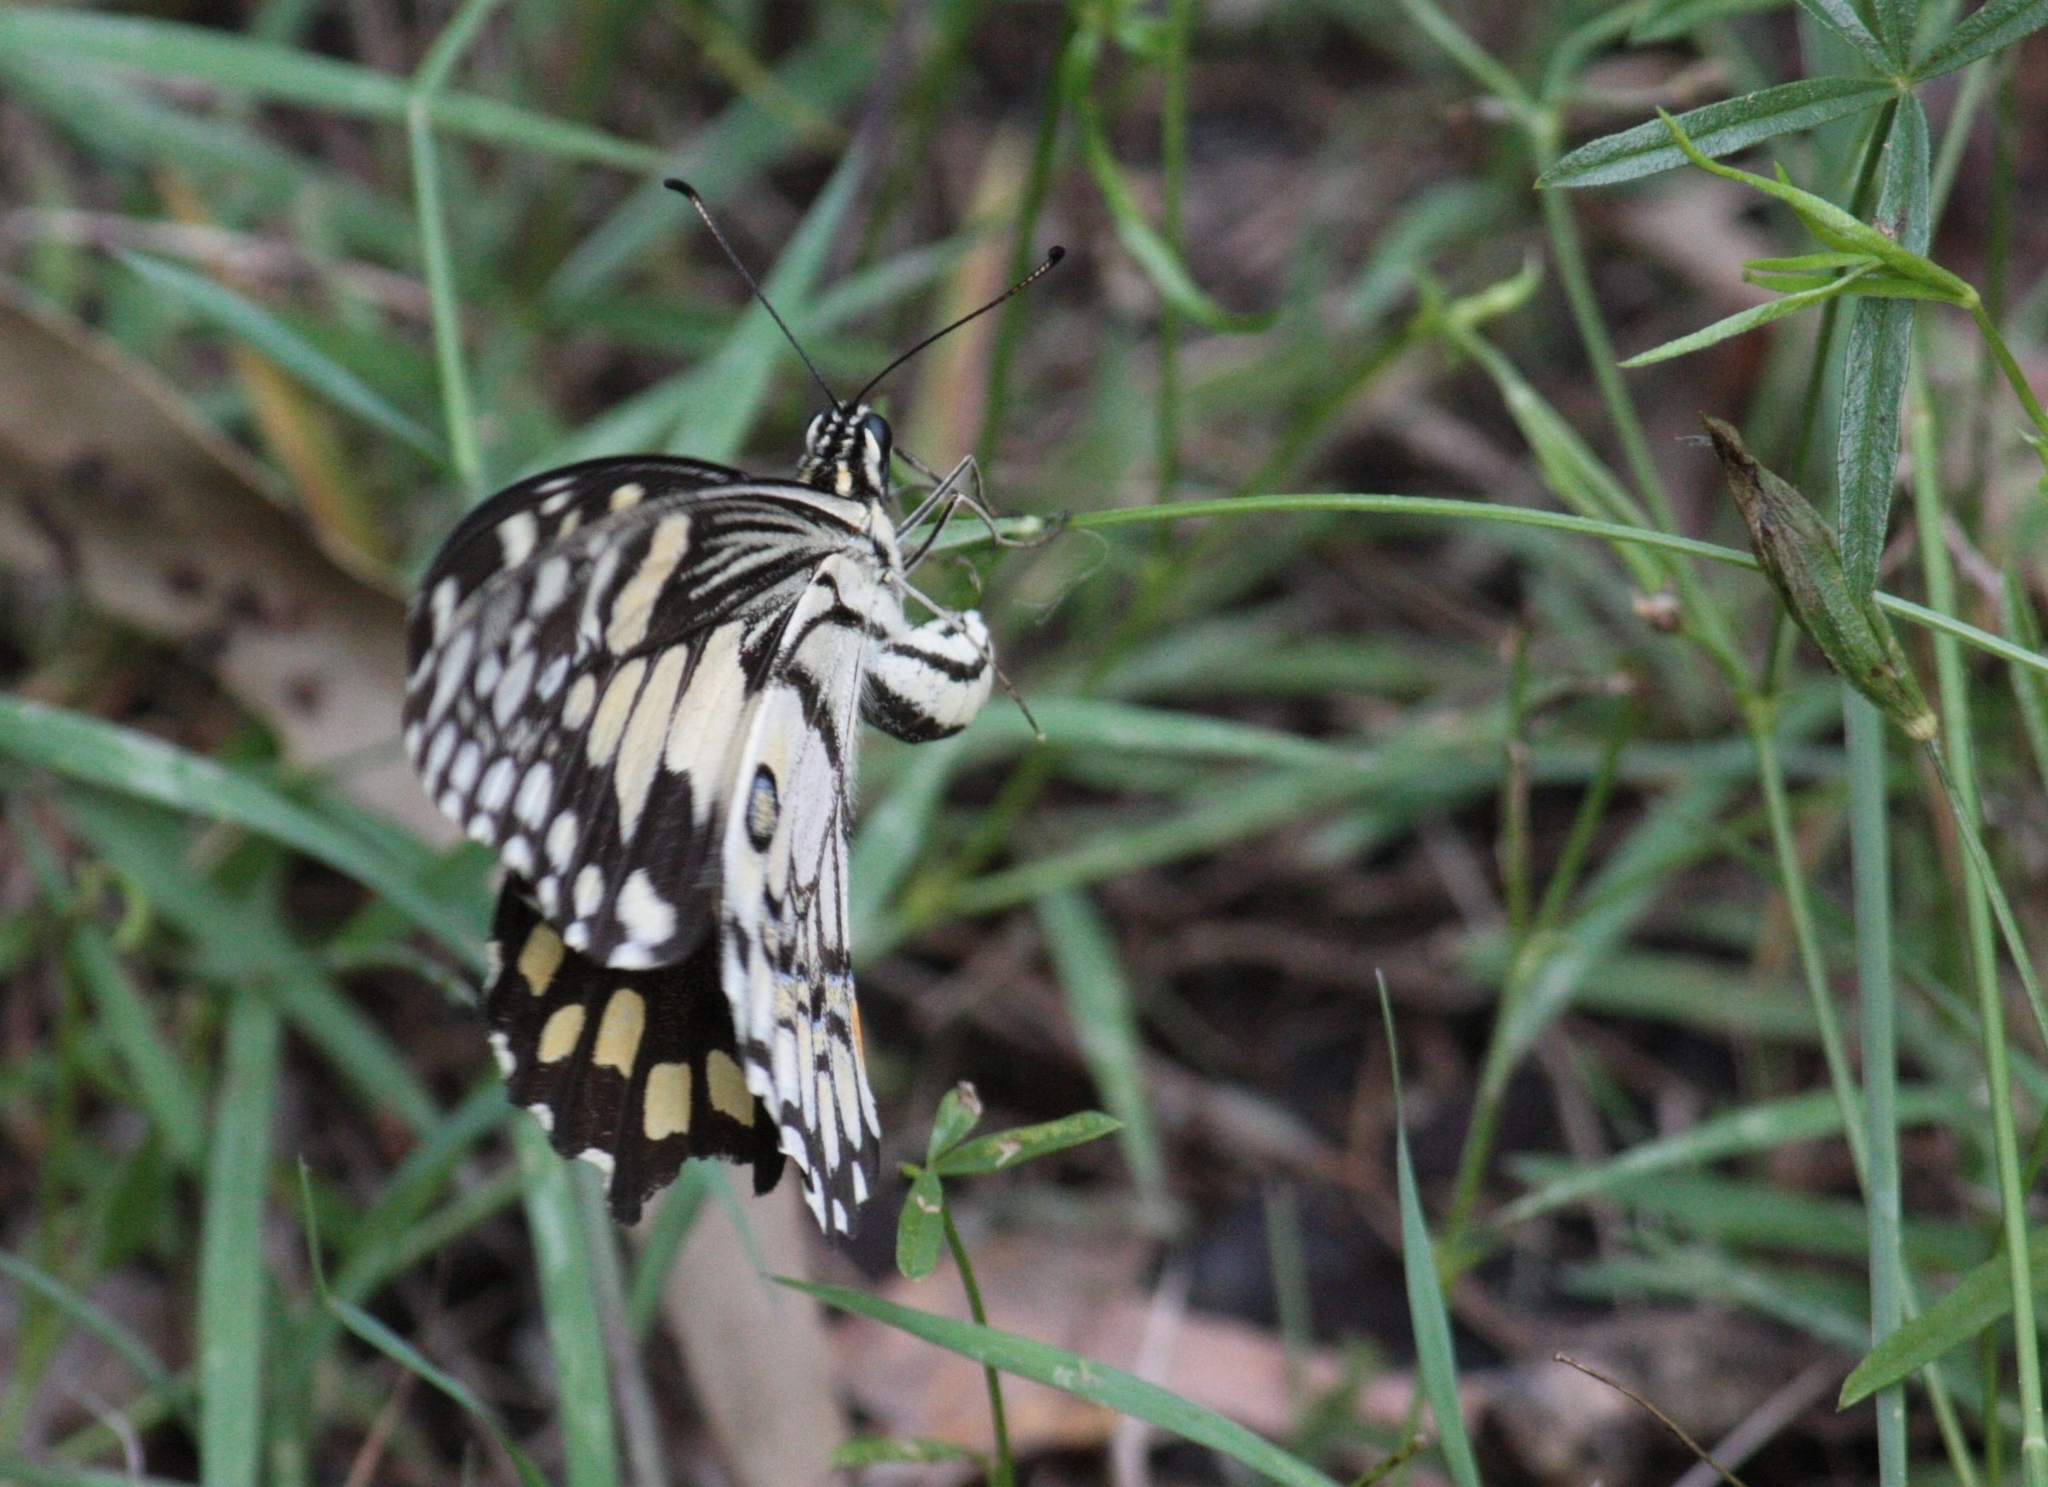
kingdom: Animalia
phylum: Arthropoda
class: Insecta
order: Lepidoptera
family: Papilionidae
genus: Papilio
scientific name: Papilio demoleus
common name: Lime butterfly
